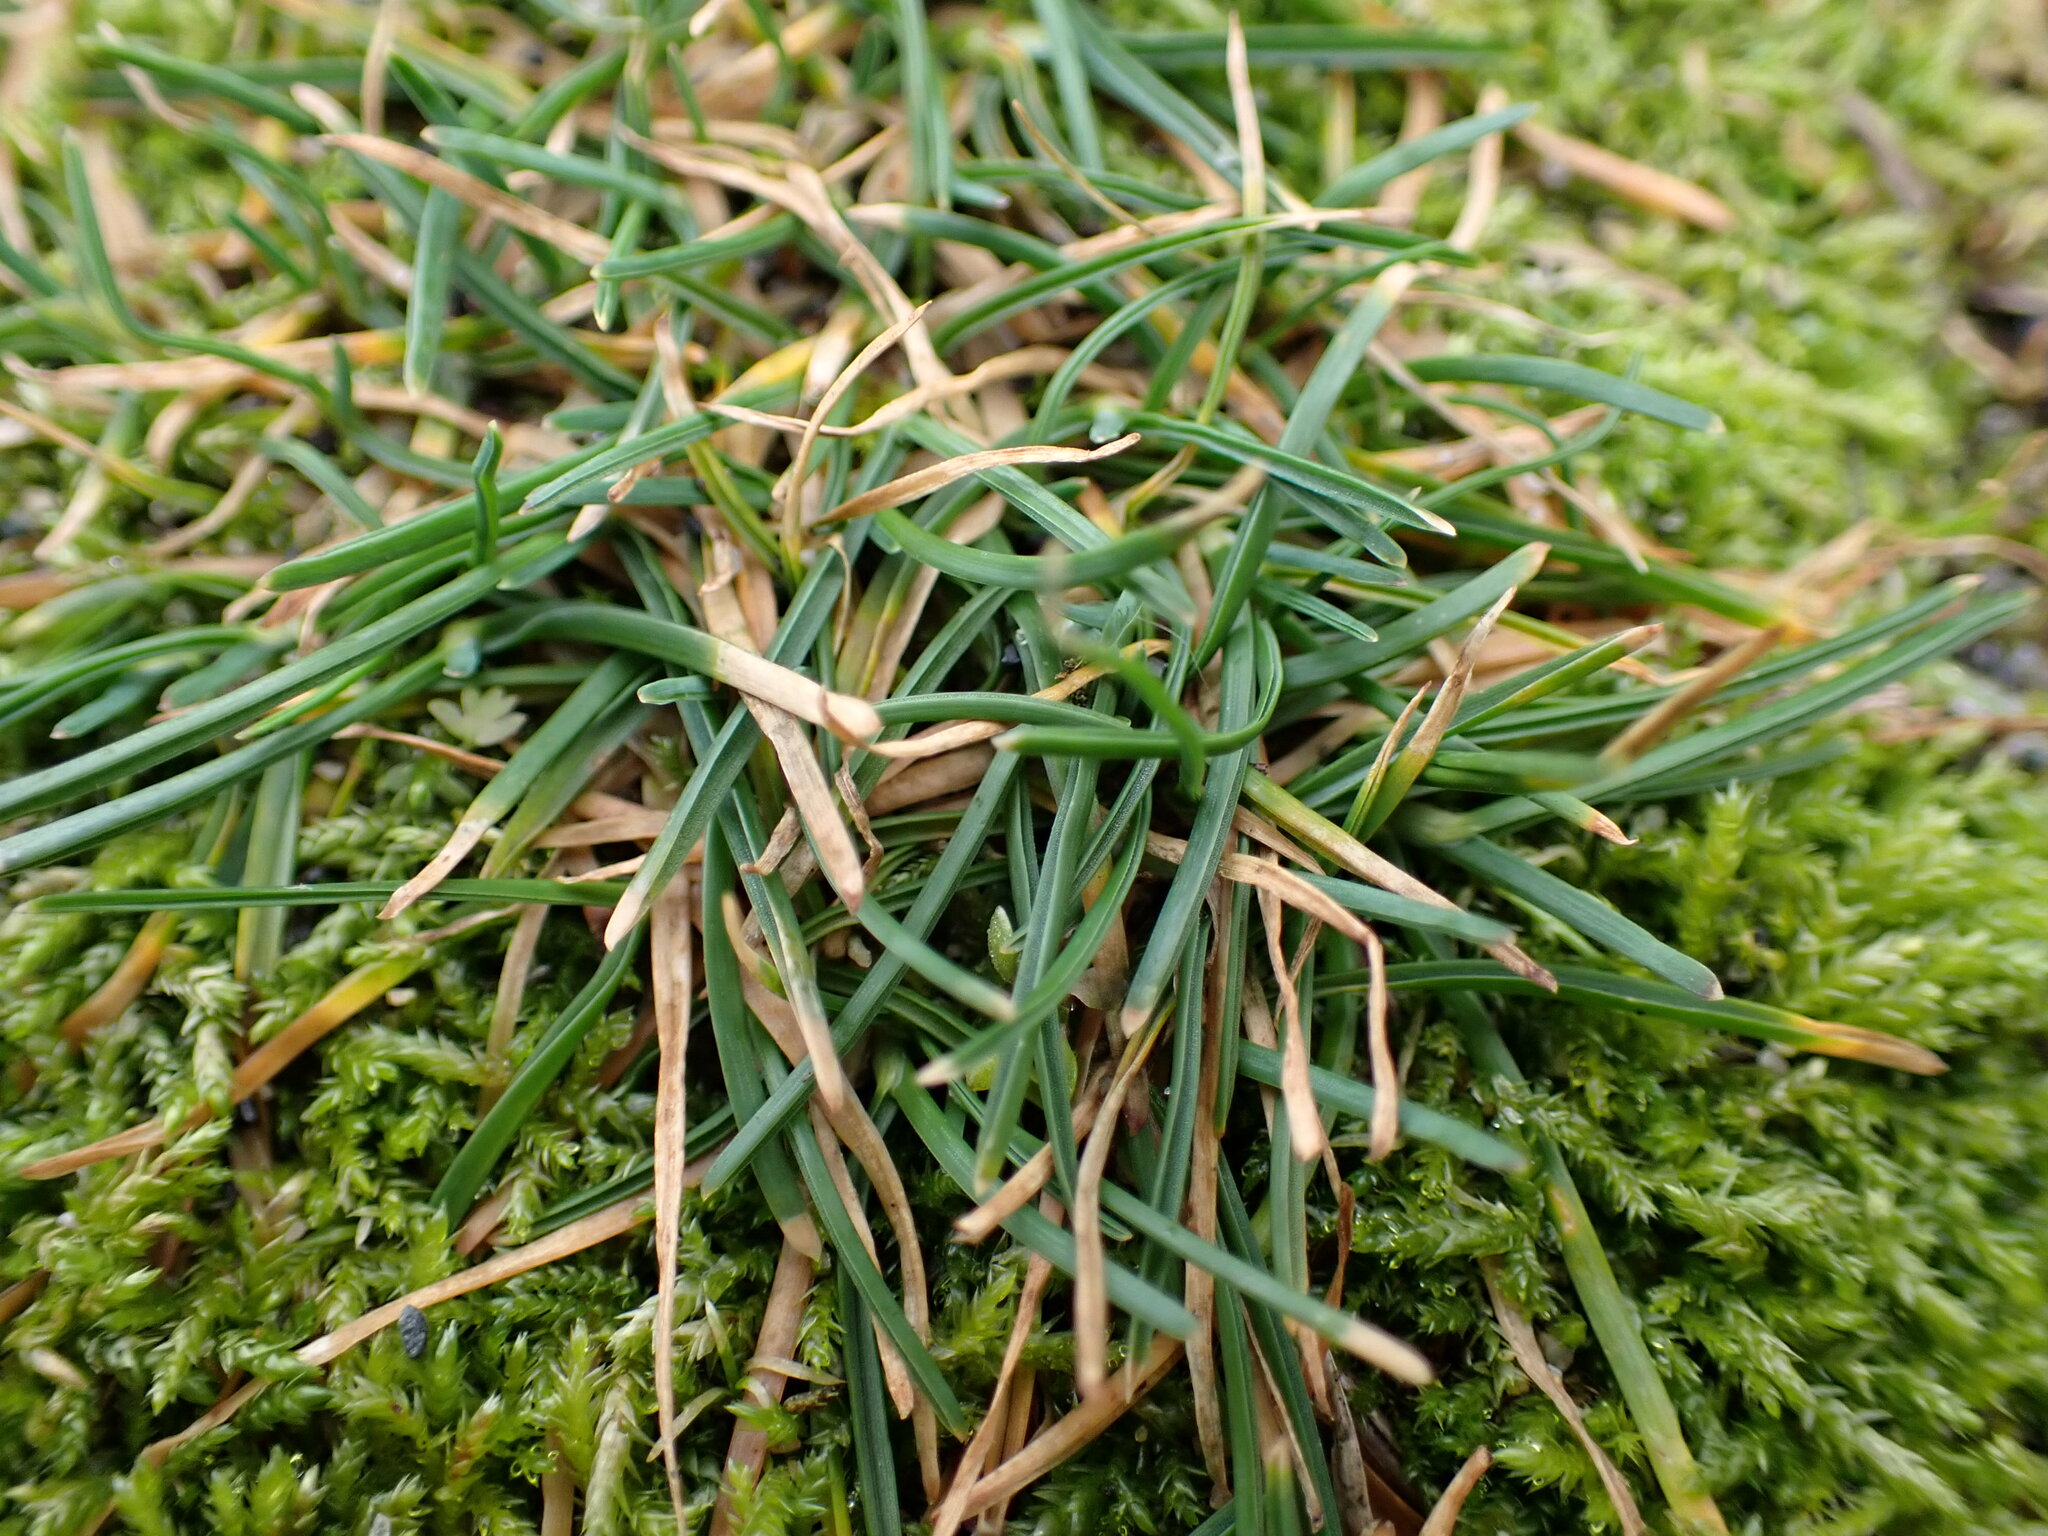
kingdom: Plantae
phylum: Tracheophyta
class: Magnoliopsida
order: Caryophyllales
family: Plumbaginaceae
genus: Armeria
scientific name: Armeria maritima
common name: Thrift
